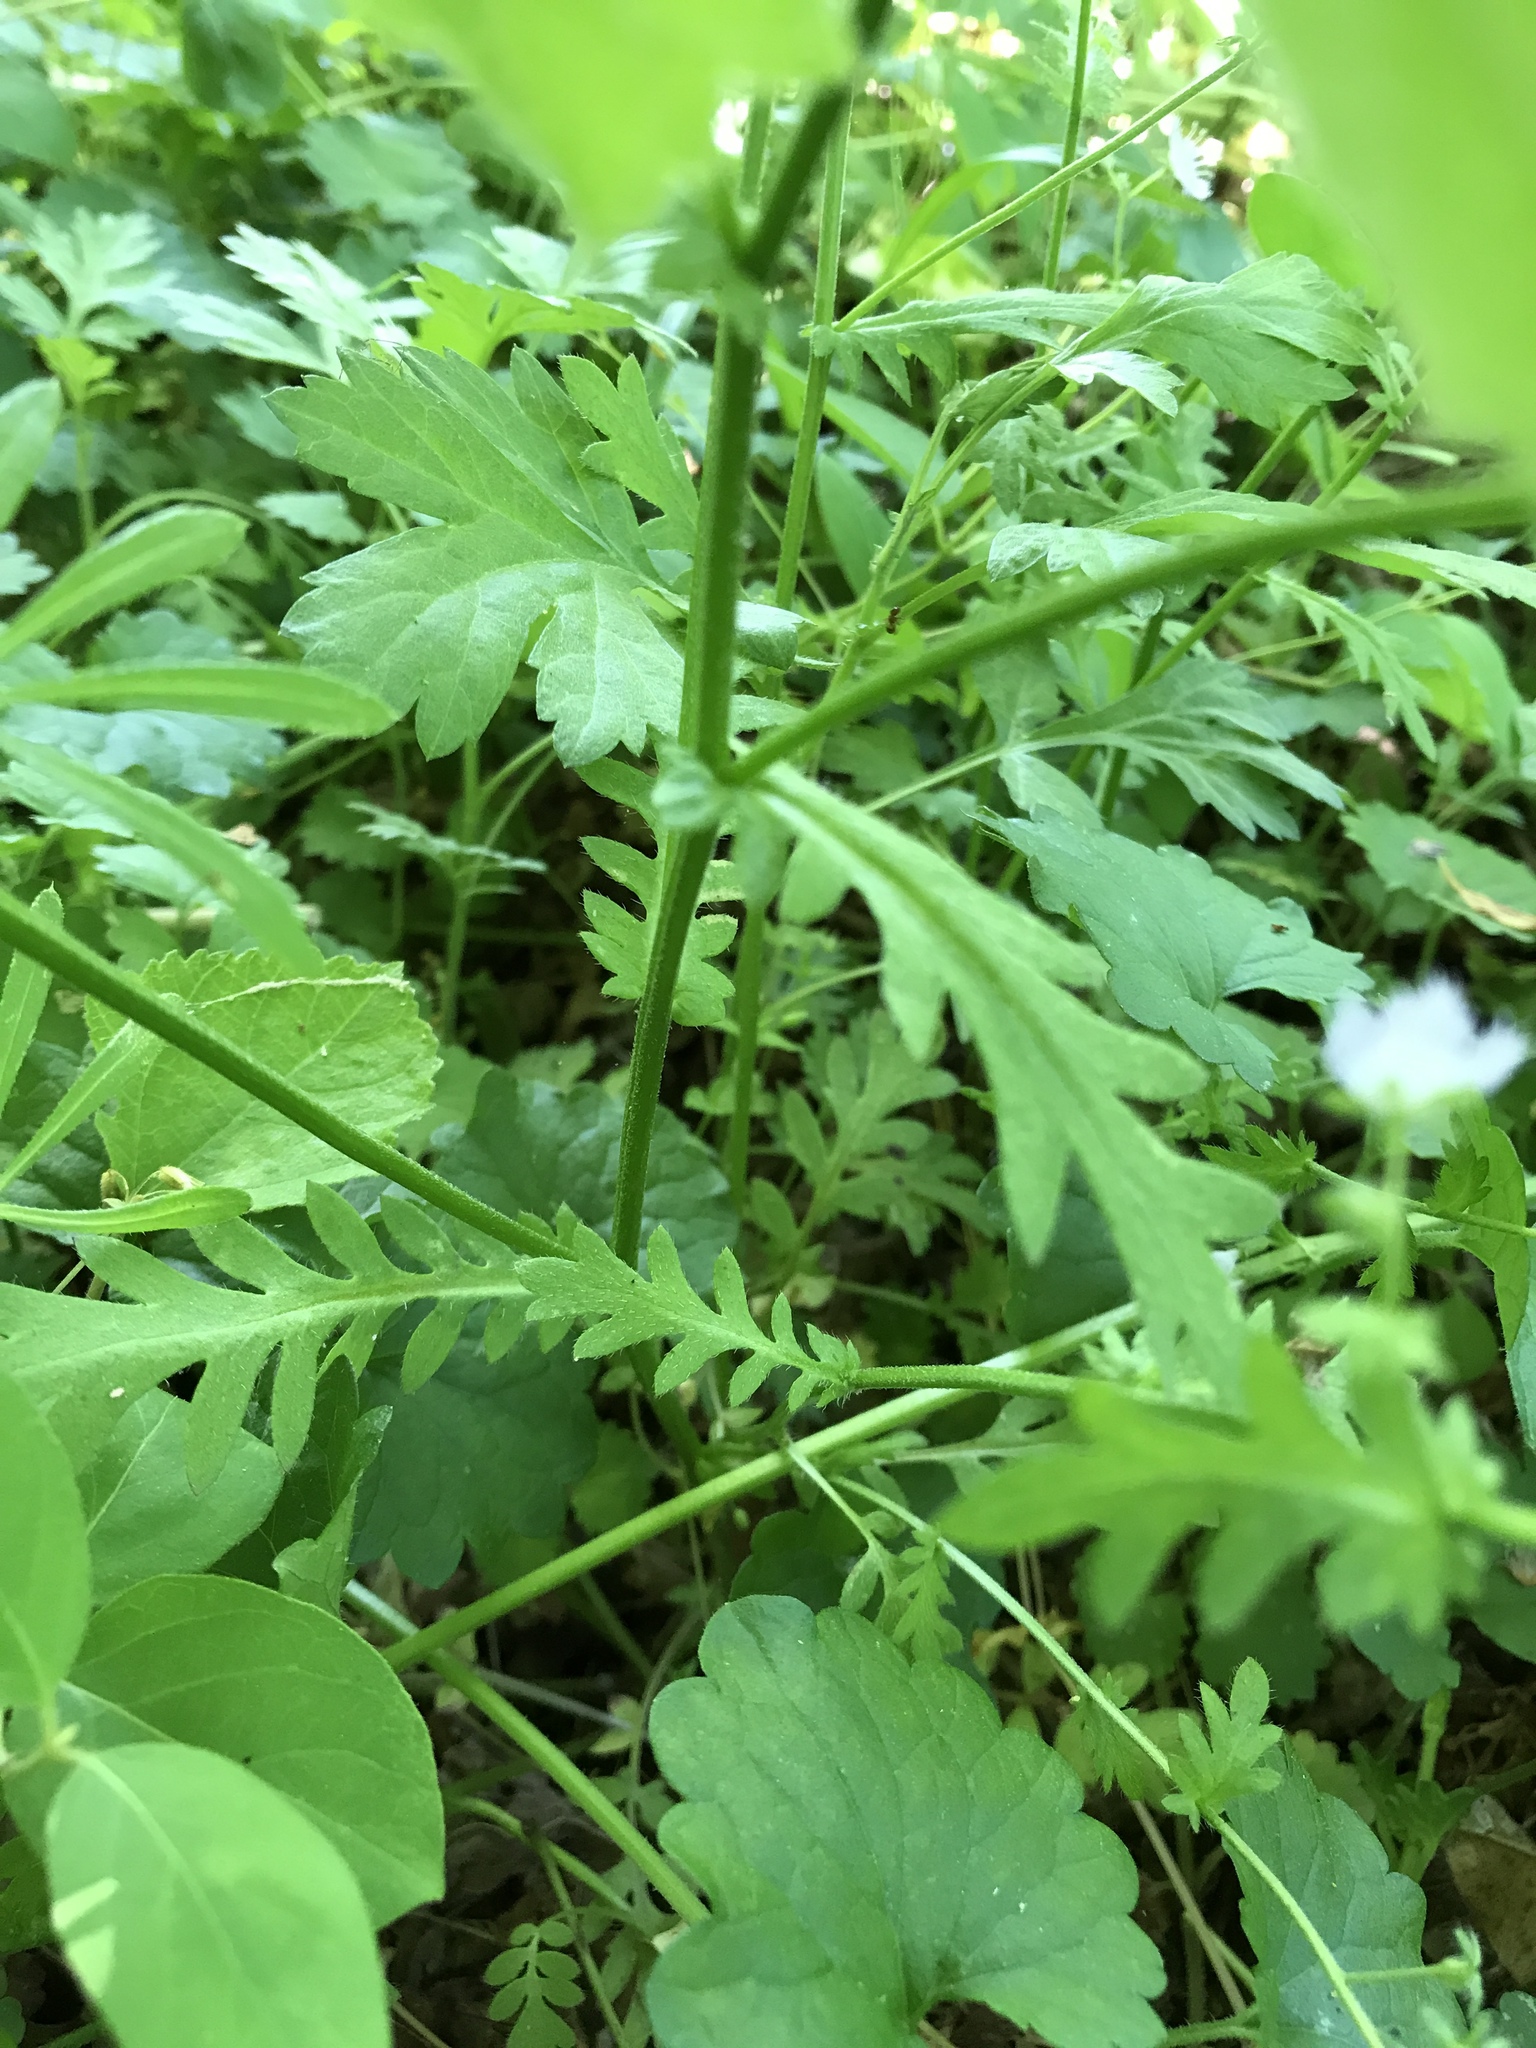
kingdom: Plantae
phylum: Tracheophyta
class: Magnoliopsida
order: Boraginales
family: Hydrophyllaceae
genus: Phacelia
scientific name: Phacelia purshii
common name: Miami-mist
